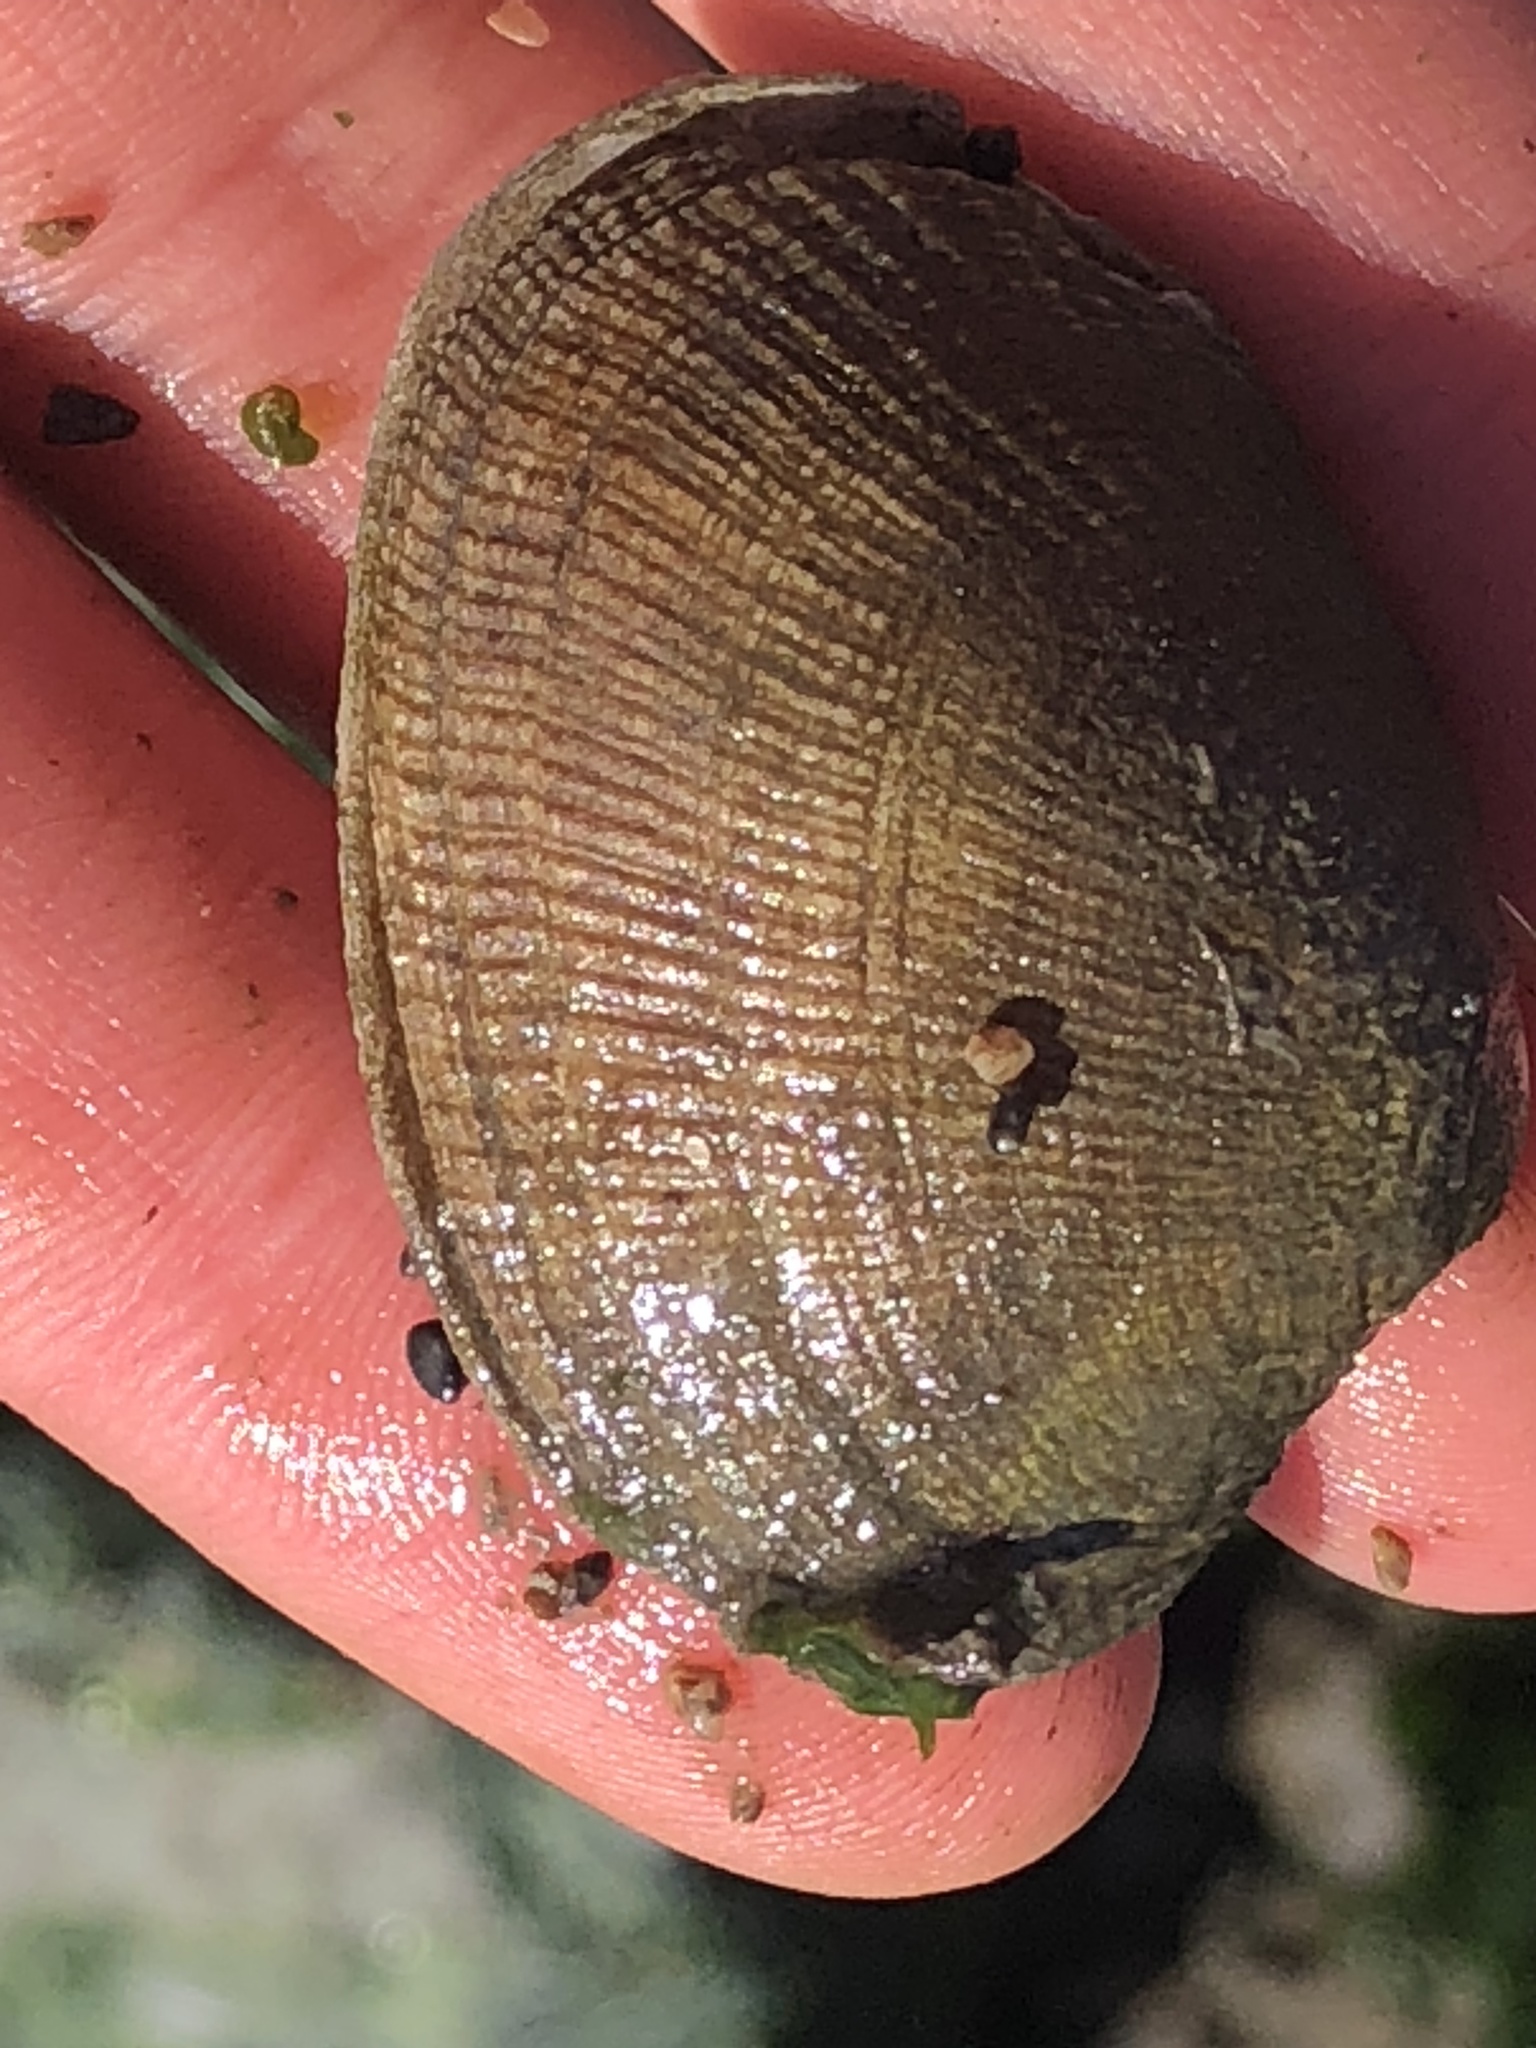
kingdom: Animalia
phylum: Mollusca
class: Bivalvia
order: Venerida
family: Veneridae
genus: Ruditapes
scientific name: Ruditapes philippinarum
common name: Manila clam
